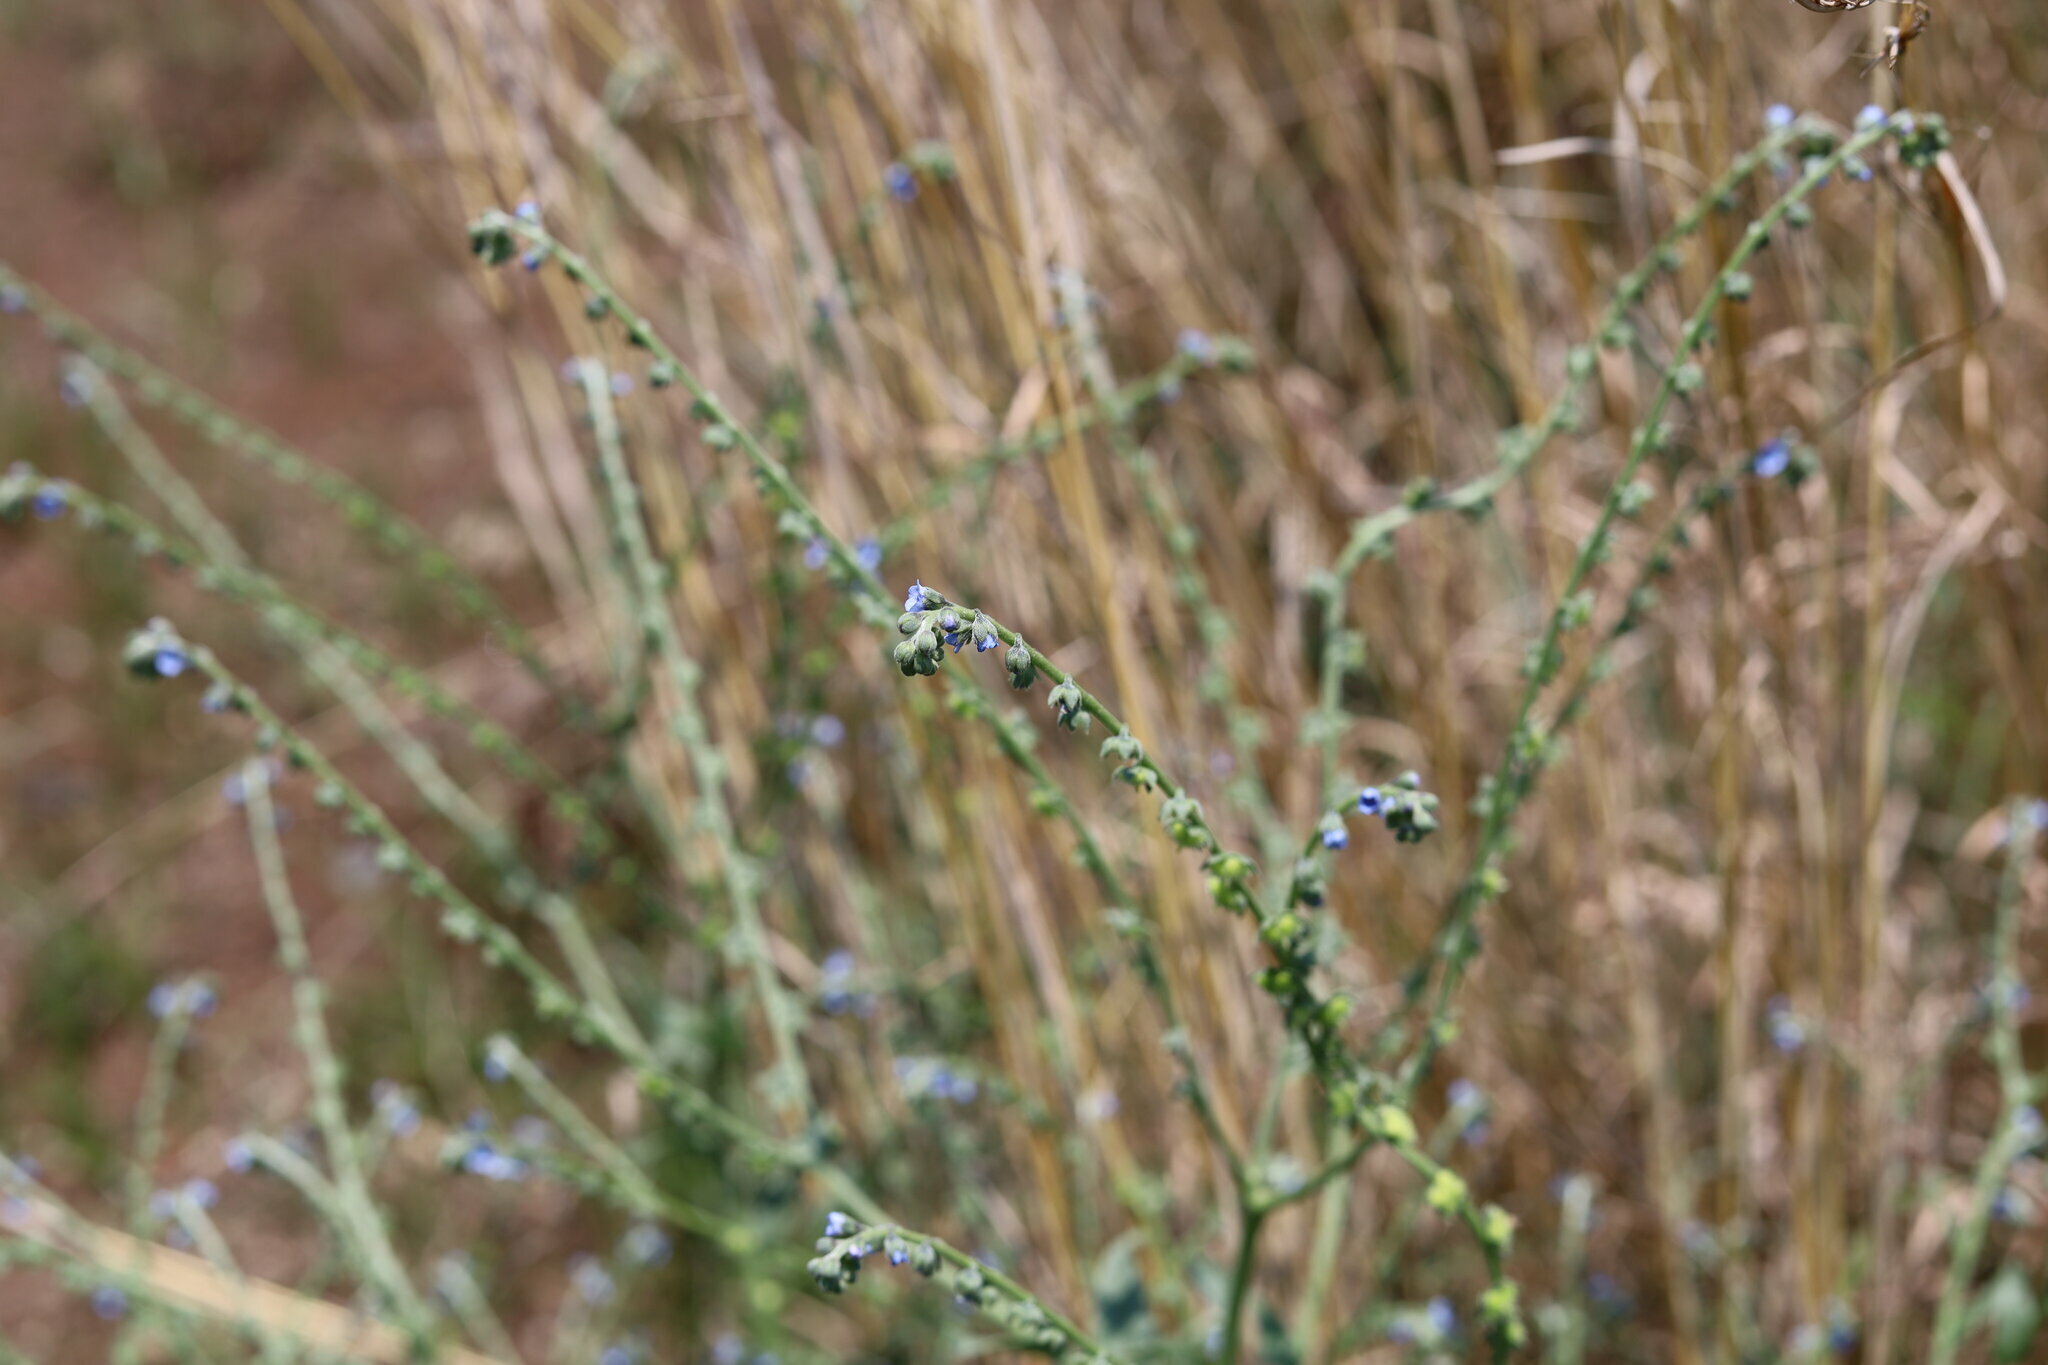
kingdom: Plantae
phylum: Tracheophyta
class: Magnoliopsida
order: Boraginales
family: Boraginaceae
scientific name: Boraginaceae
